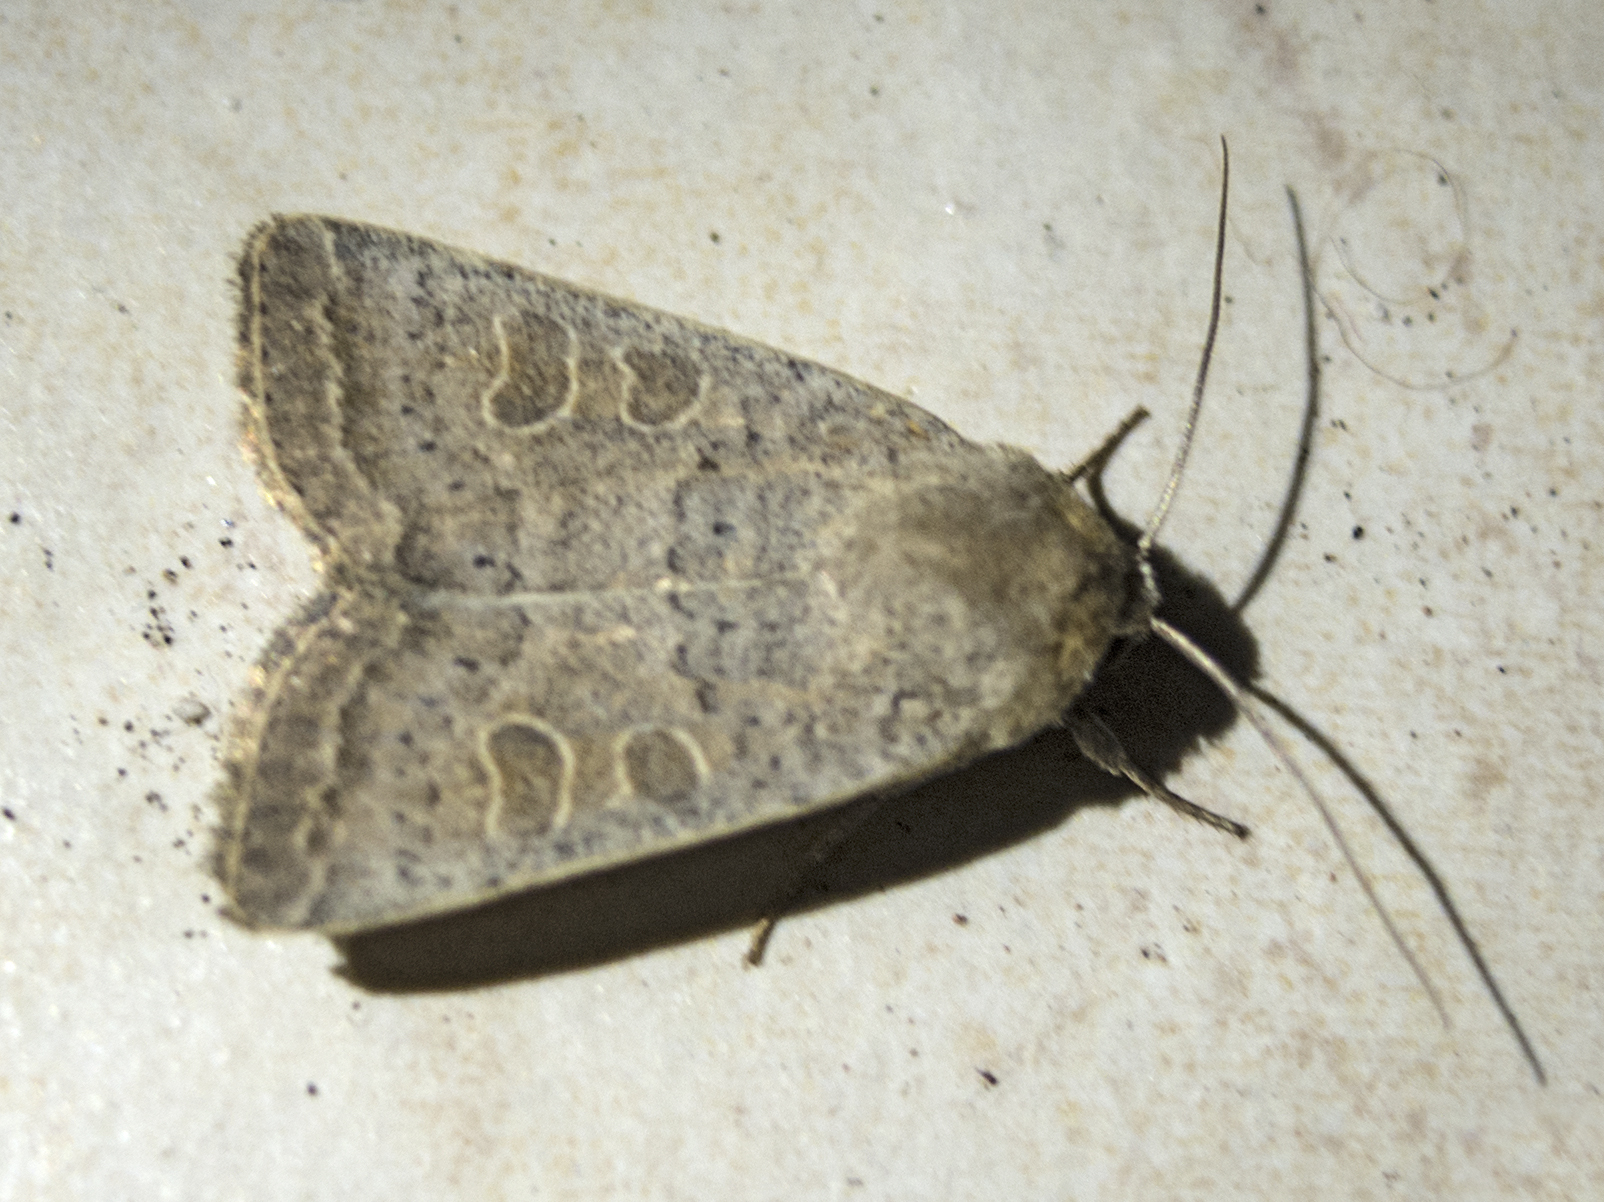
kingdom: Animalia
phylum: Arthropoda
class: Insecta
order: Lepidoptera
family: Noctuidae
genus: Hoplodrina
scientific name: Hoplodrina ambigua
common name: Vine's rustic
